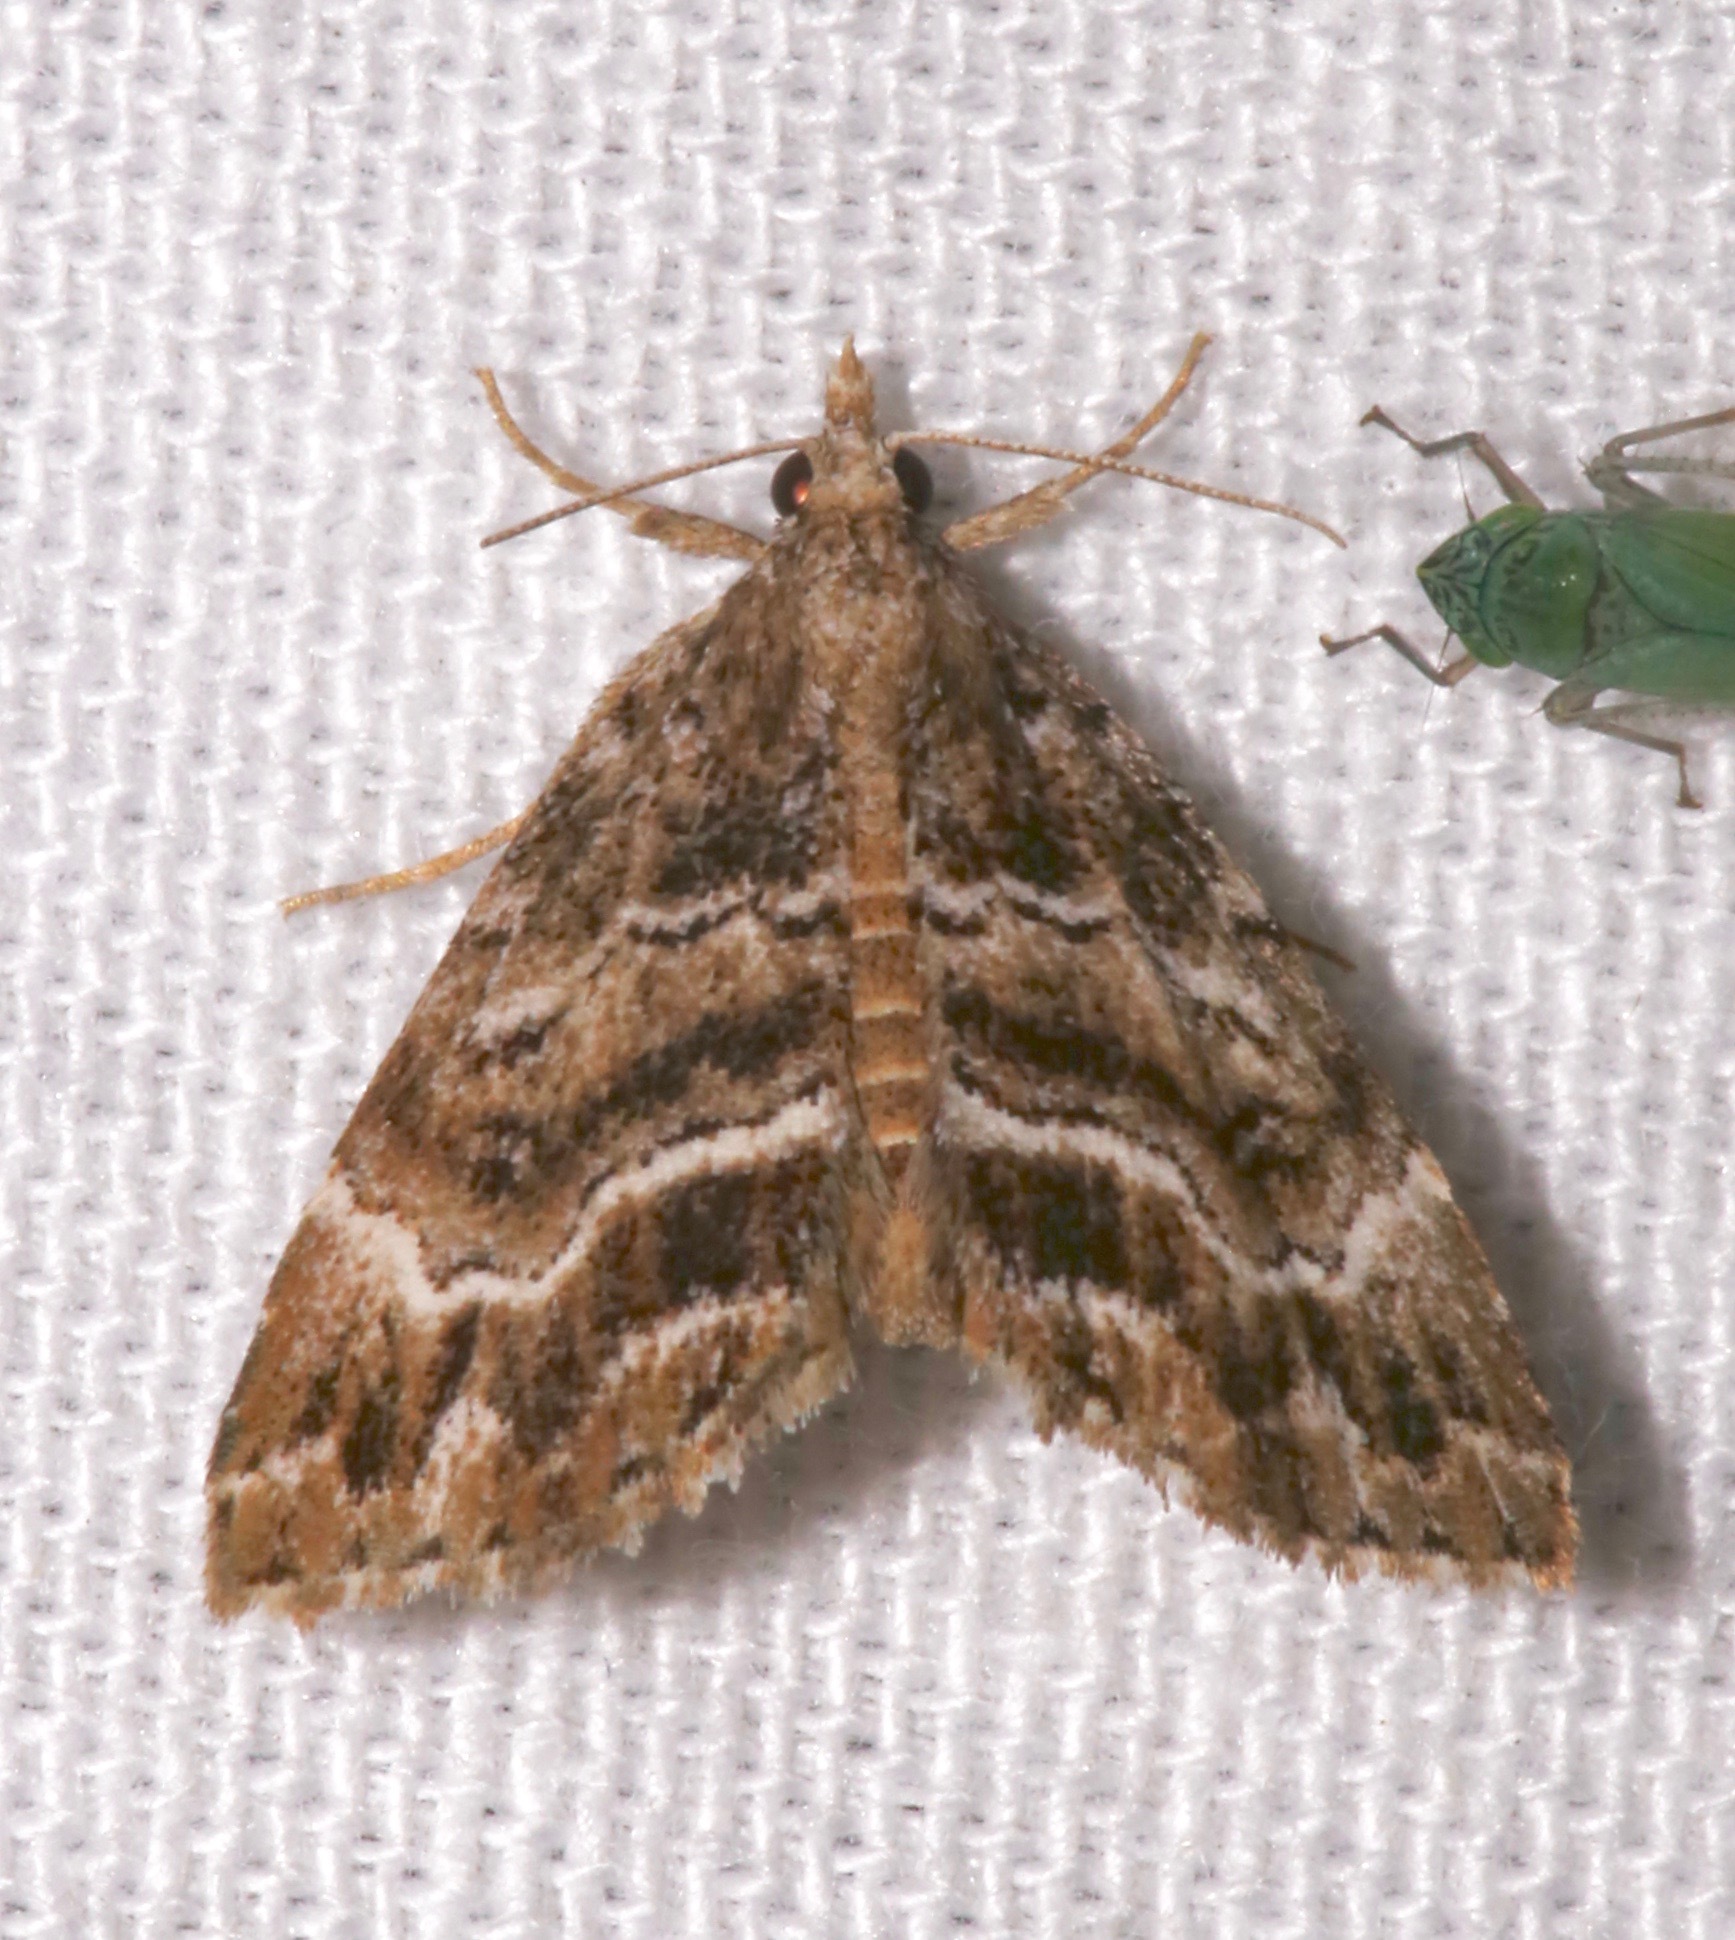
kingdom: Animalia
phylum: Arthropoda
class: Insecta
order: Lepidoptera
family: Erebidae
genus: Cutina
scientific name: Cutina arcuata
